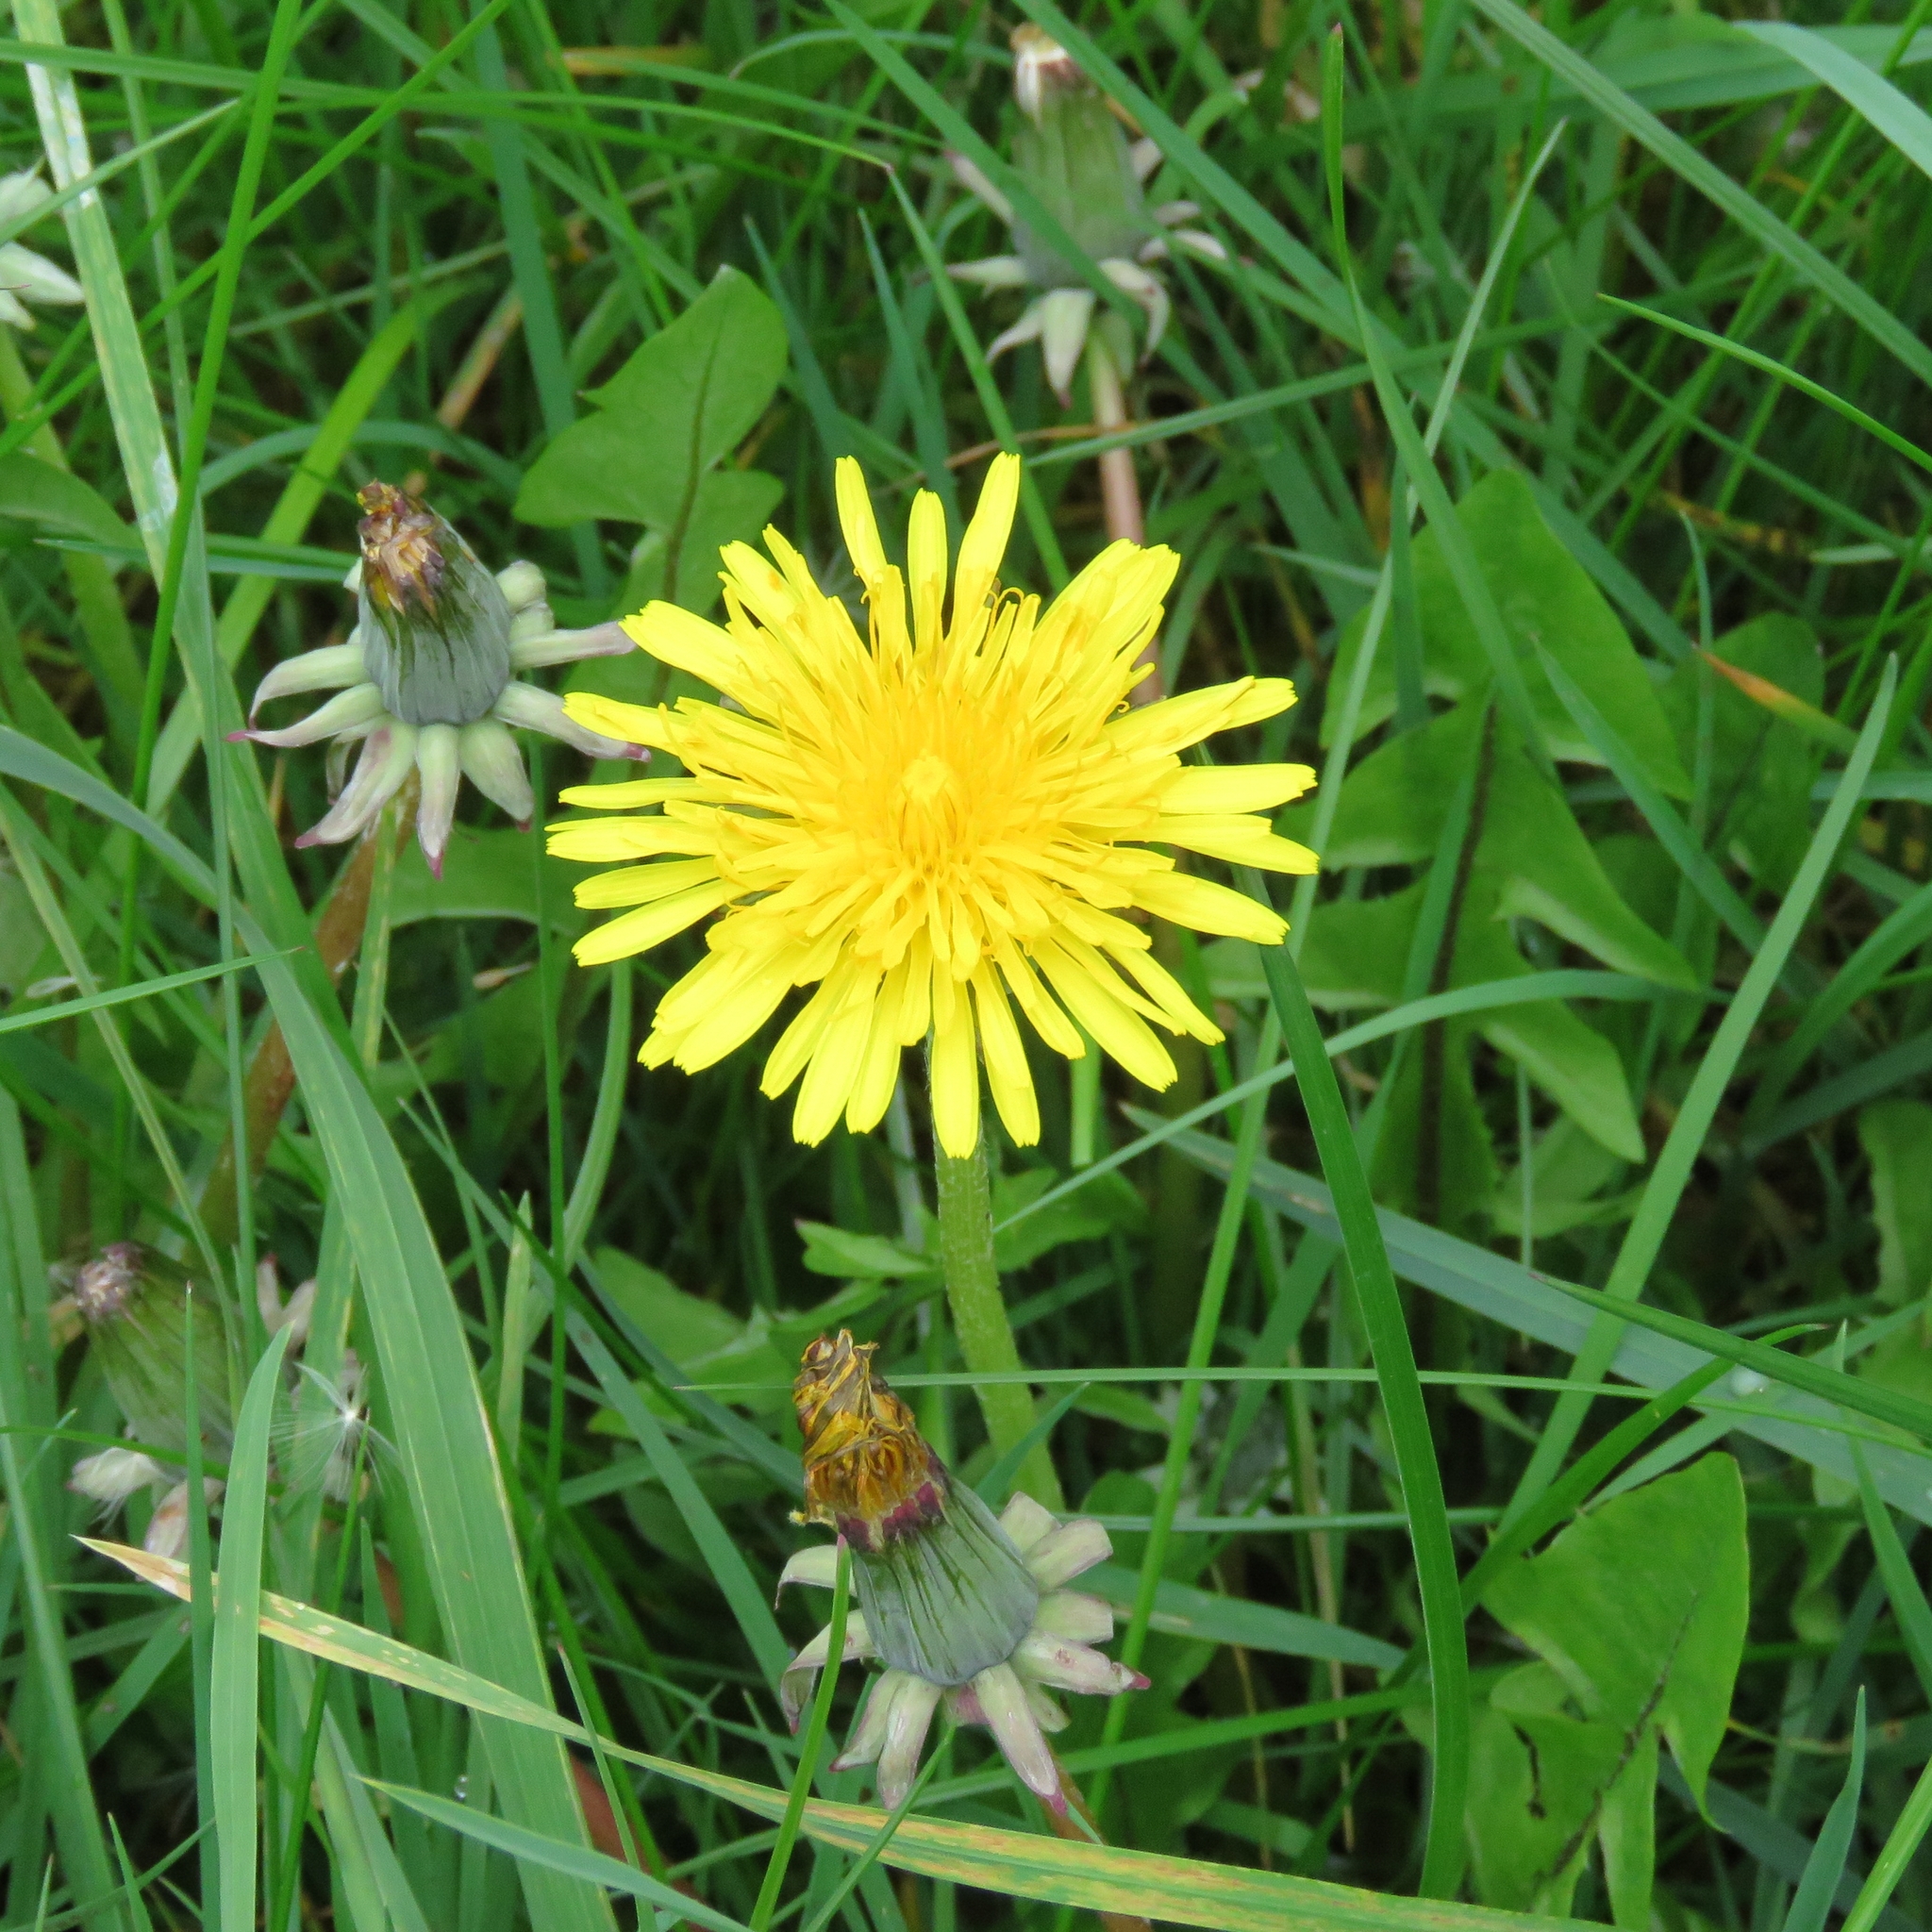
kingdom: Plantae
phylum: Tracheophyta
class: Magnoliopsida
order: Asterales
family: Asteraceae
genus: Taraxacum
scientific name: Taraxacum officinale
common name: Common dandelion
